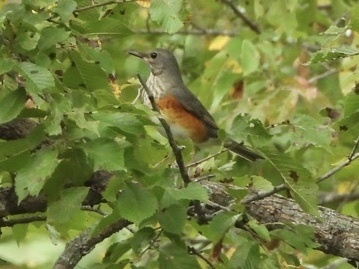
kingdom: Animalia
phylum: Chordata
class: Aves
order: Passeriformes
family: Turdidae
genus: Turdus
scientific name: Turdus hortulorum
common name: Grey-backed thrush
